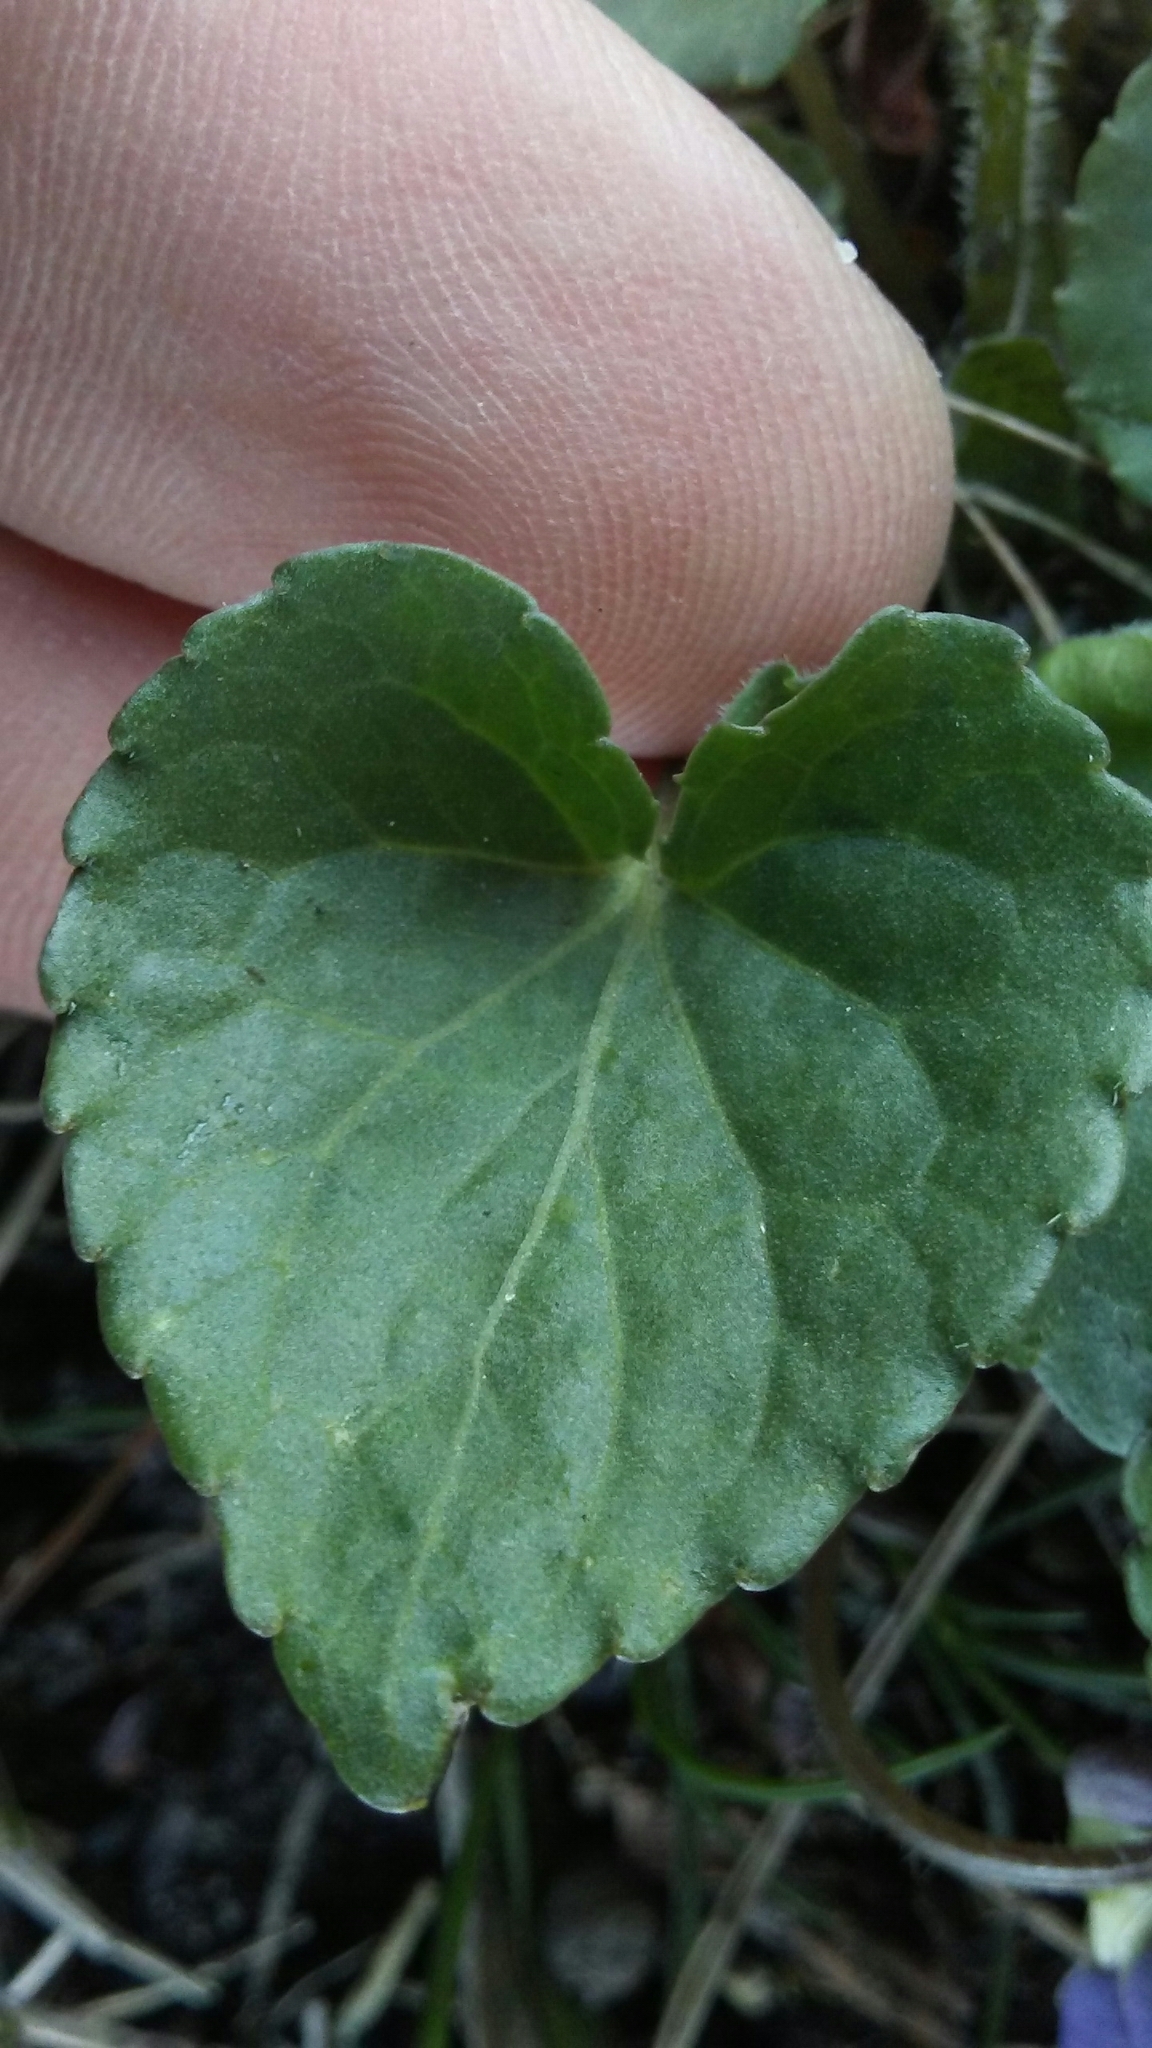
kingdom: Plantae
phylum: Tracheophyta
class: Magnoliopsida
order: Malpighiales
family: Violaceae
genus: Viola
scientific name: Viola sororia
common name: Dooryard violet
